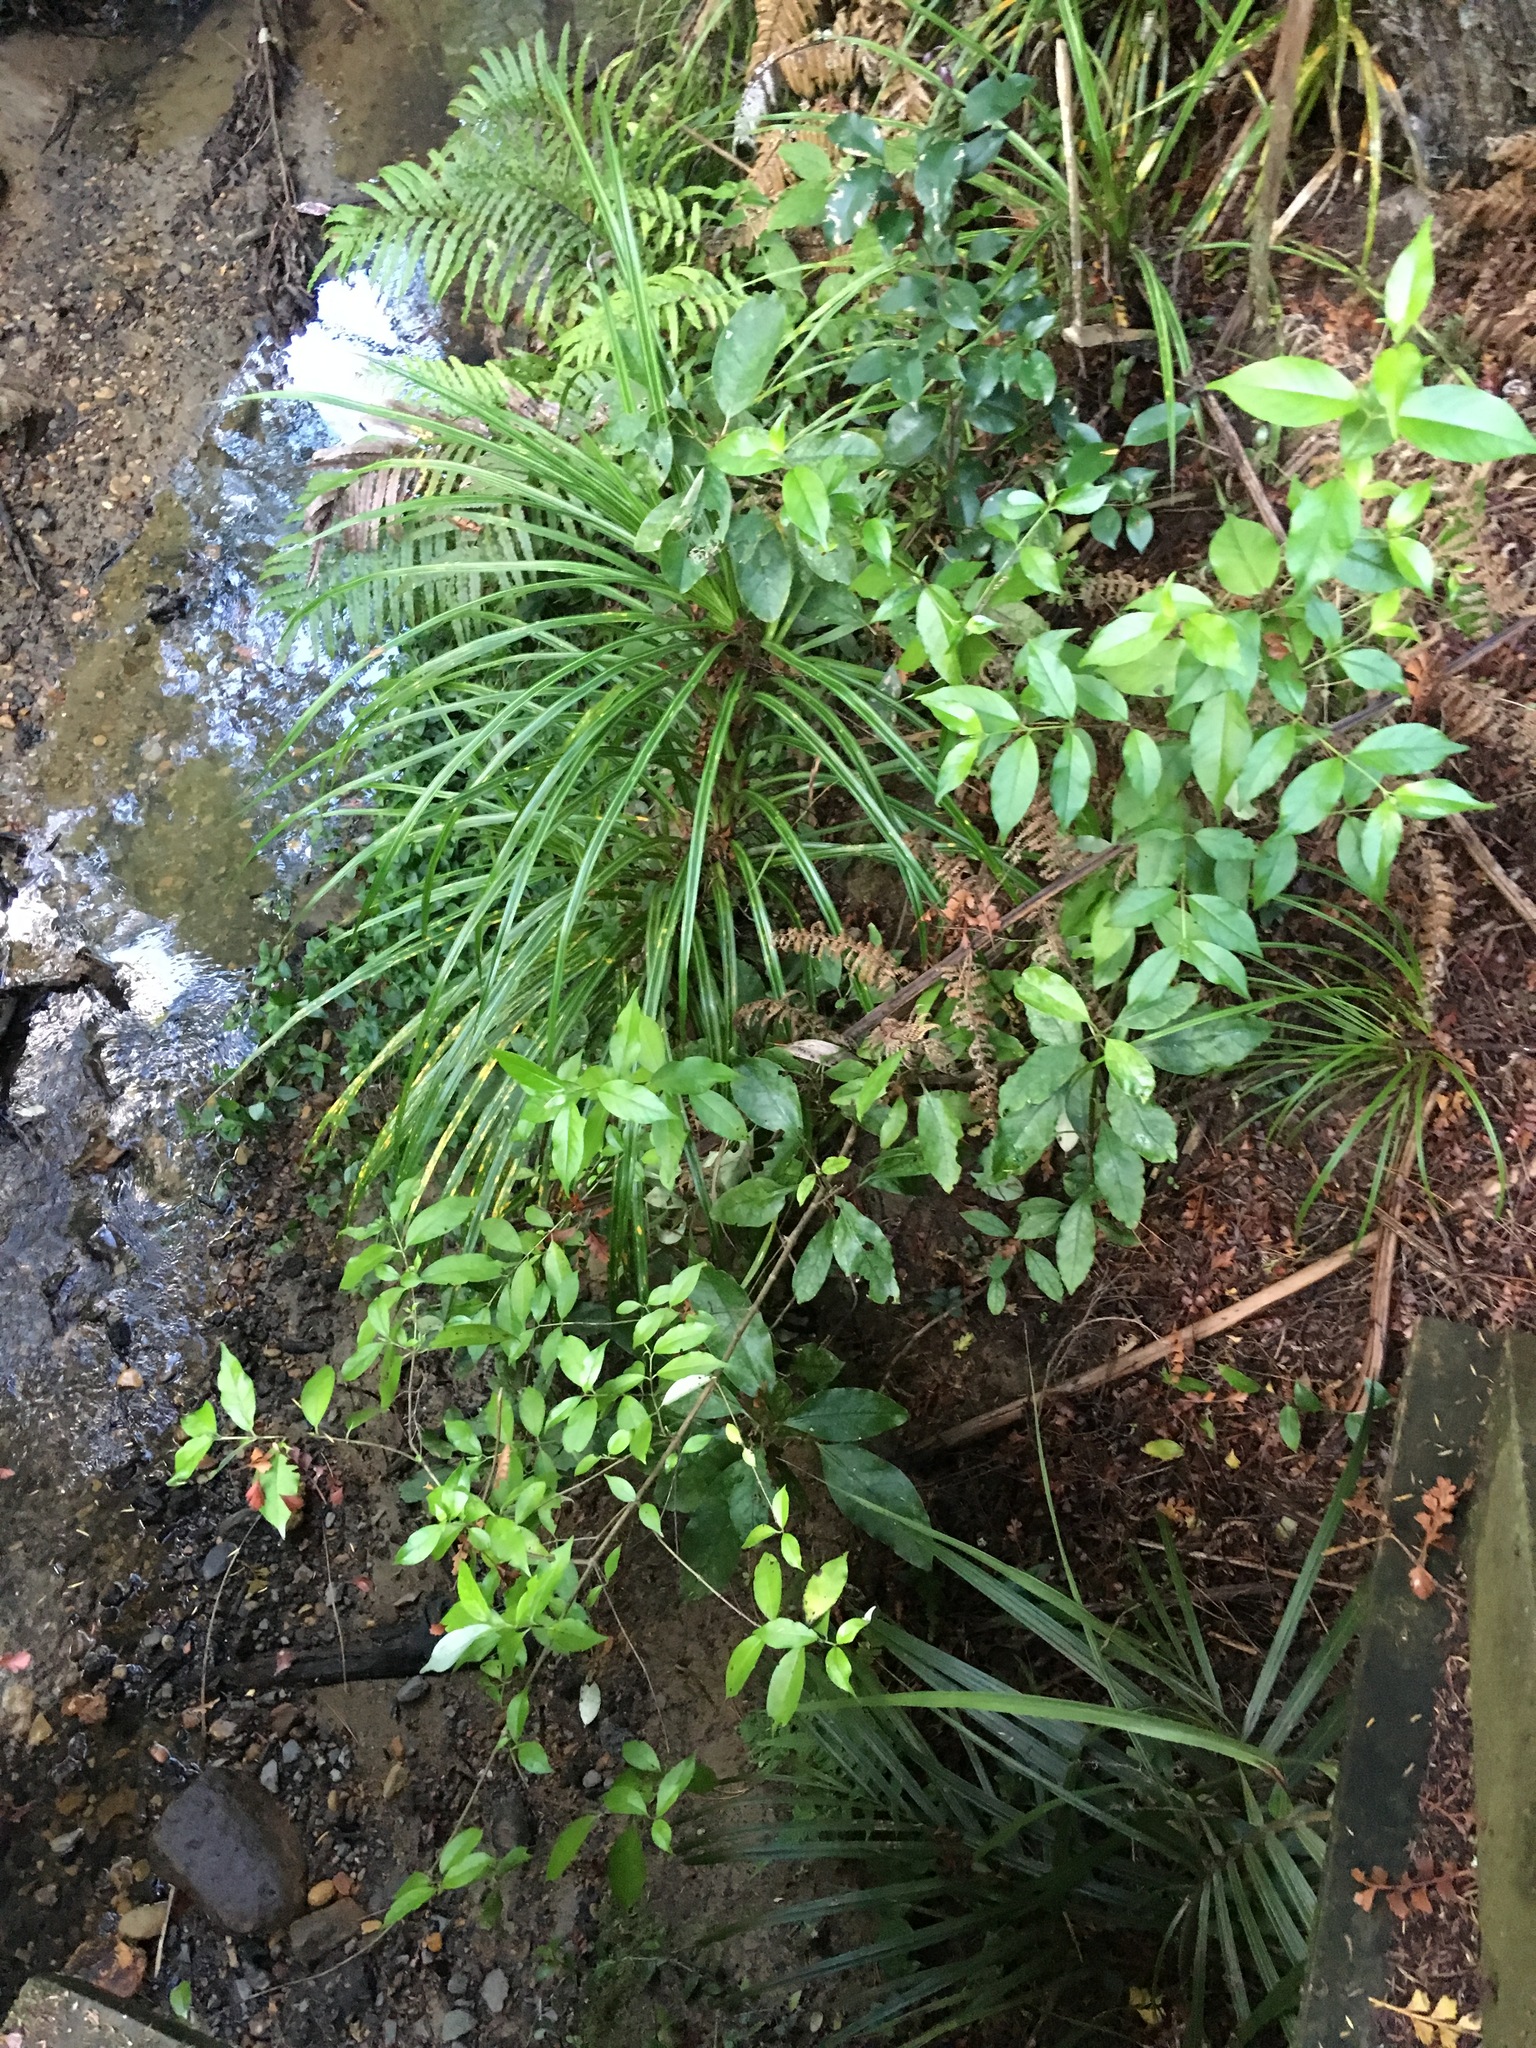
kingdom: Plantae
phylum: Tracheophyta
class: Liliopsida
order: Pandanales
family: Pandanaceae
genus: Freycinetia
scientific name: Freycinetia banksii
